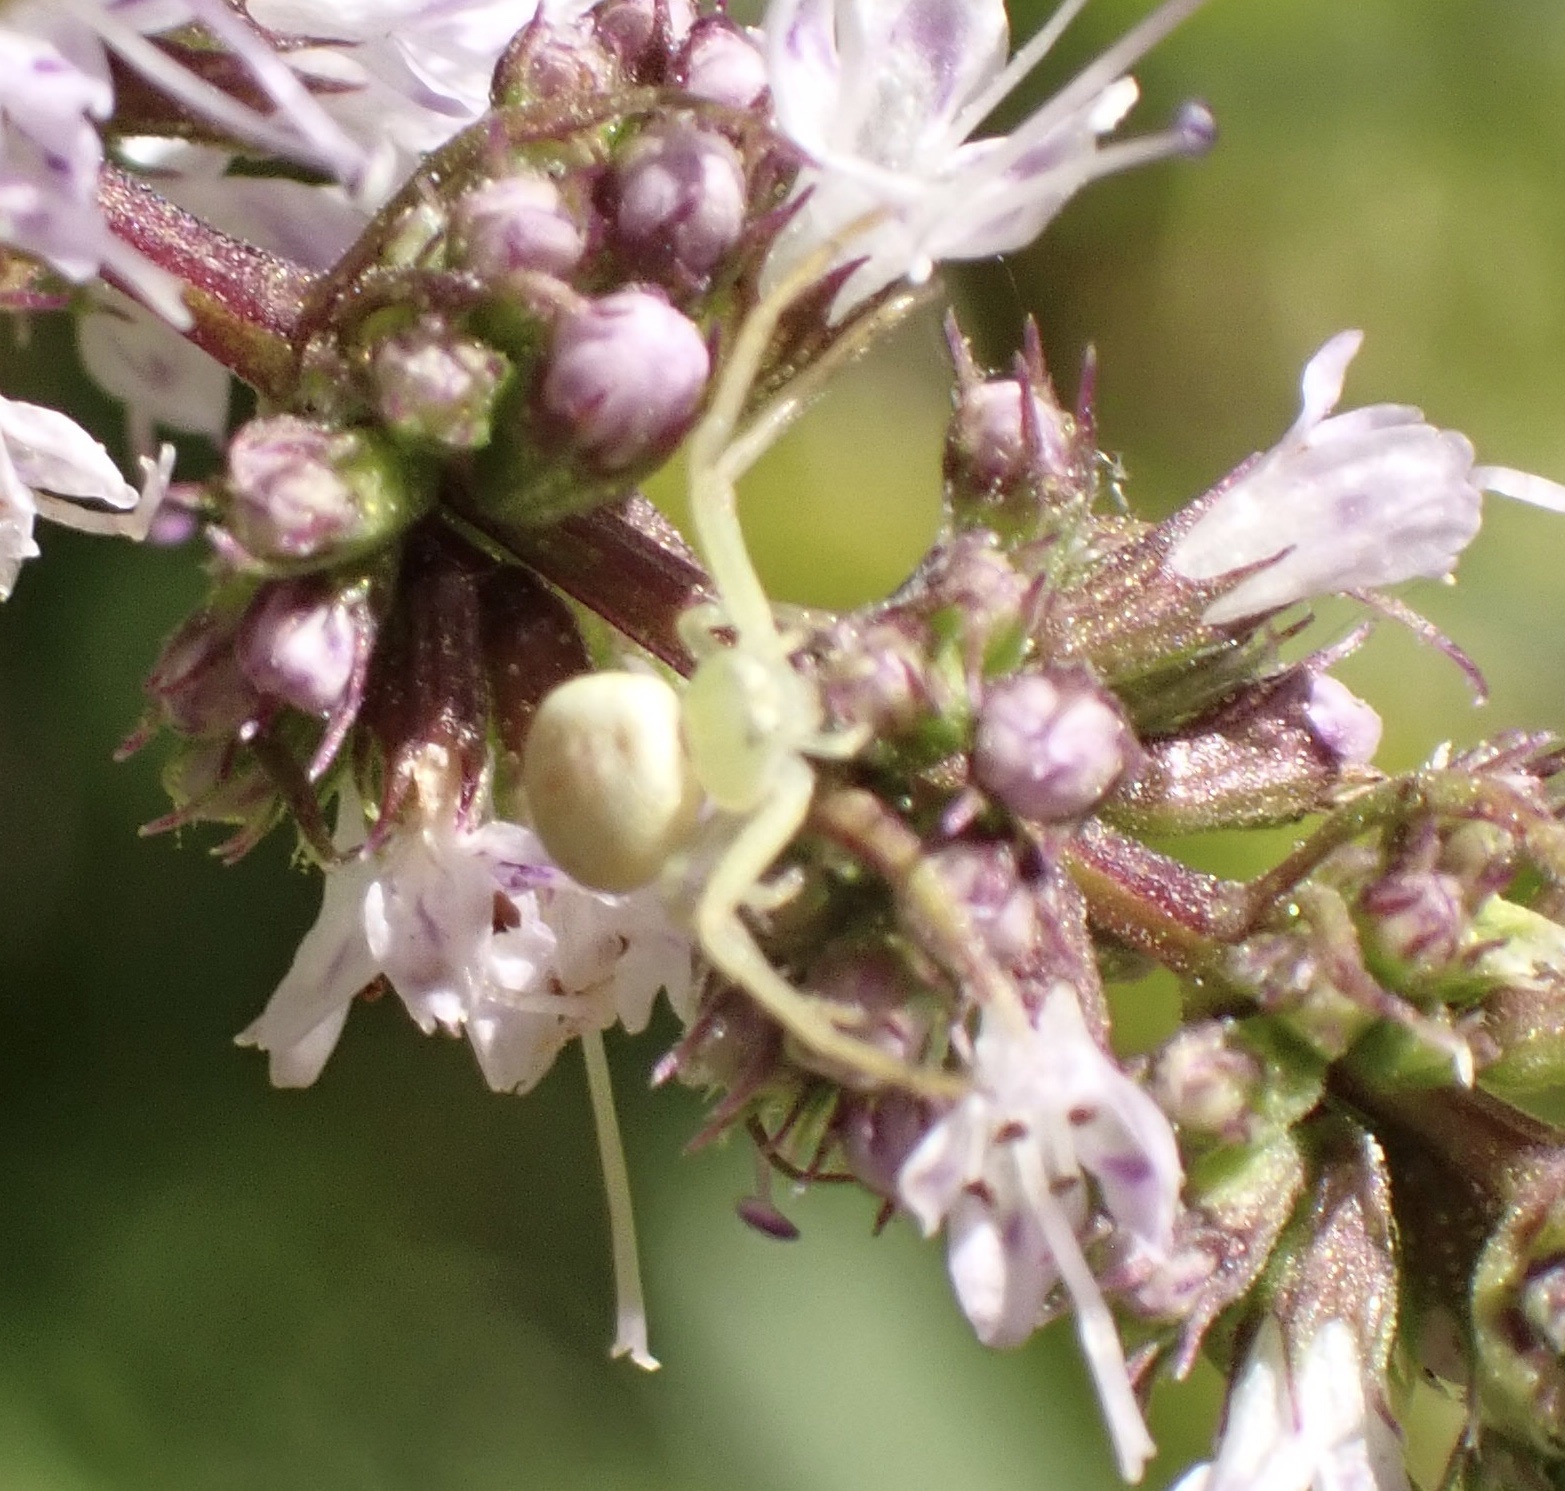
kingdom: Animalia
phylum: Arthropoda
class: Arachnida
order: Araneae
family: Thomisidae
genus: Ebrechtella
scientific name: Ebrechtella tricuspidata
